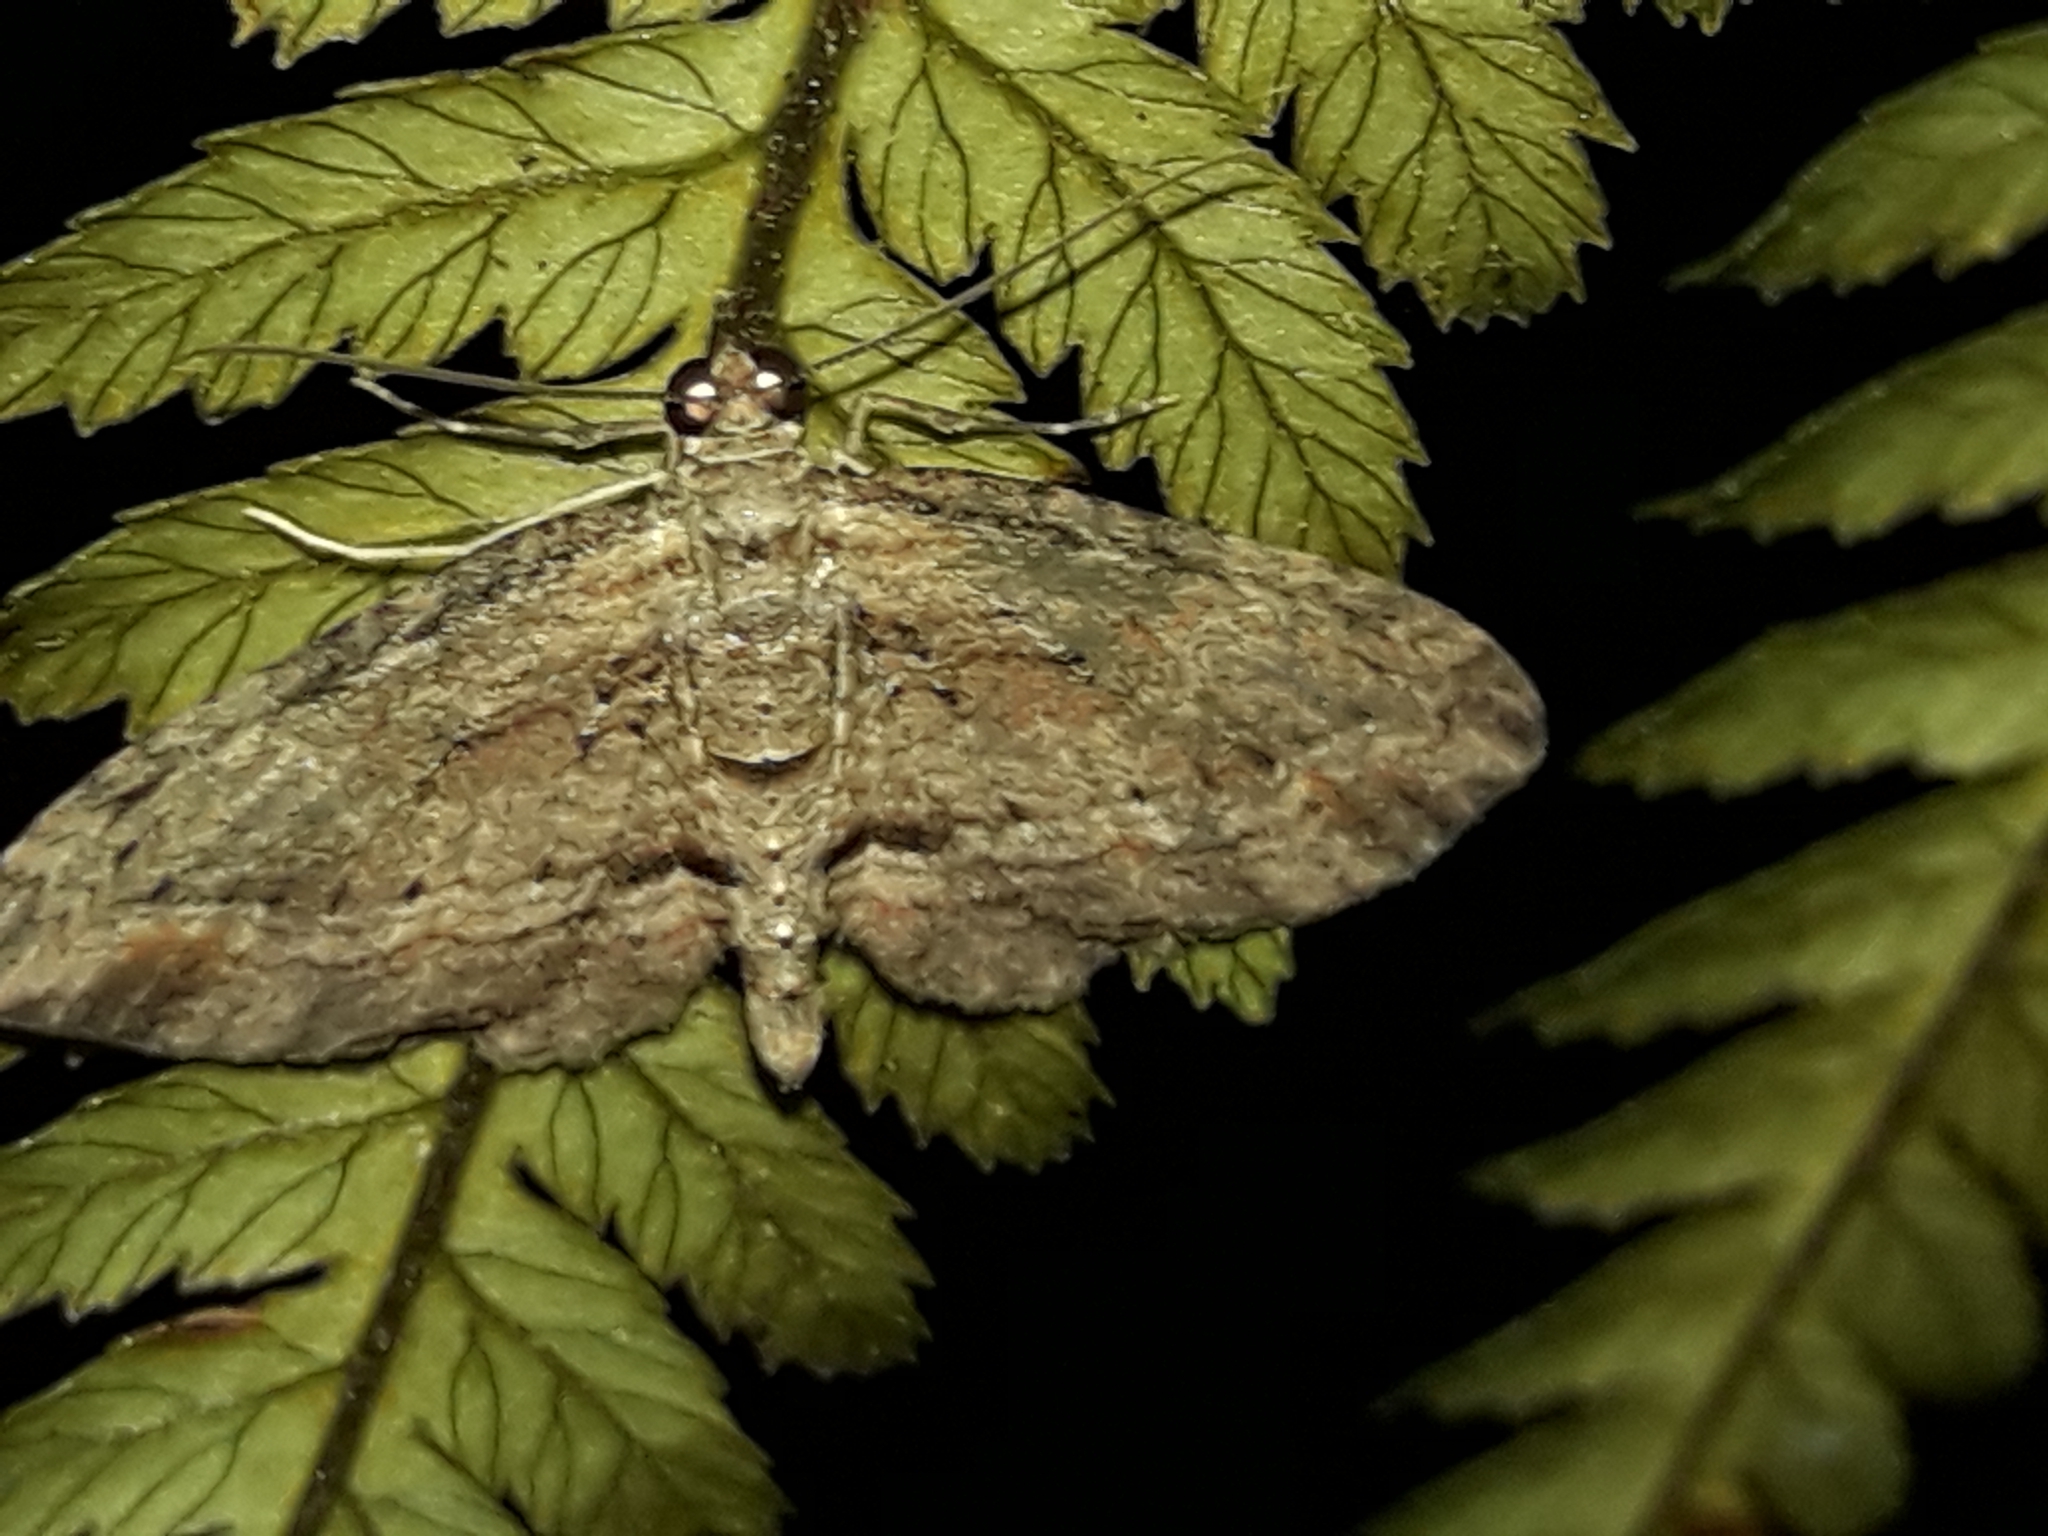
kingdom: Animalia
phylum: Arthropoda
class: Insecta
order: Lepidoptera
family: Geometridae
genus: Chloroclystis
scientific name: Chloroclystis filata
